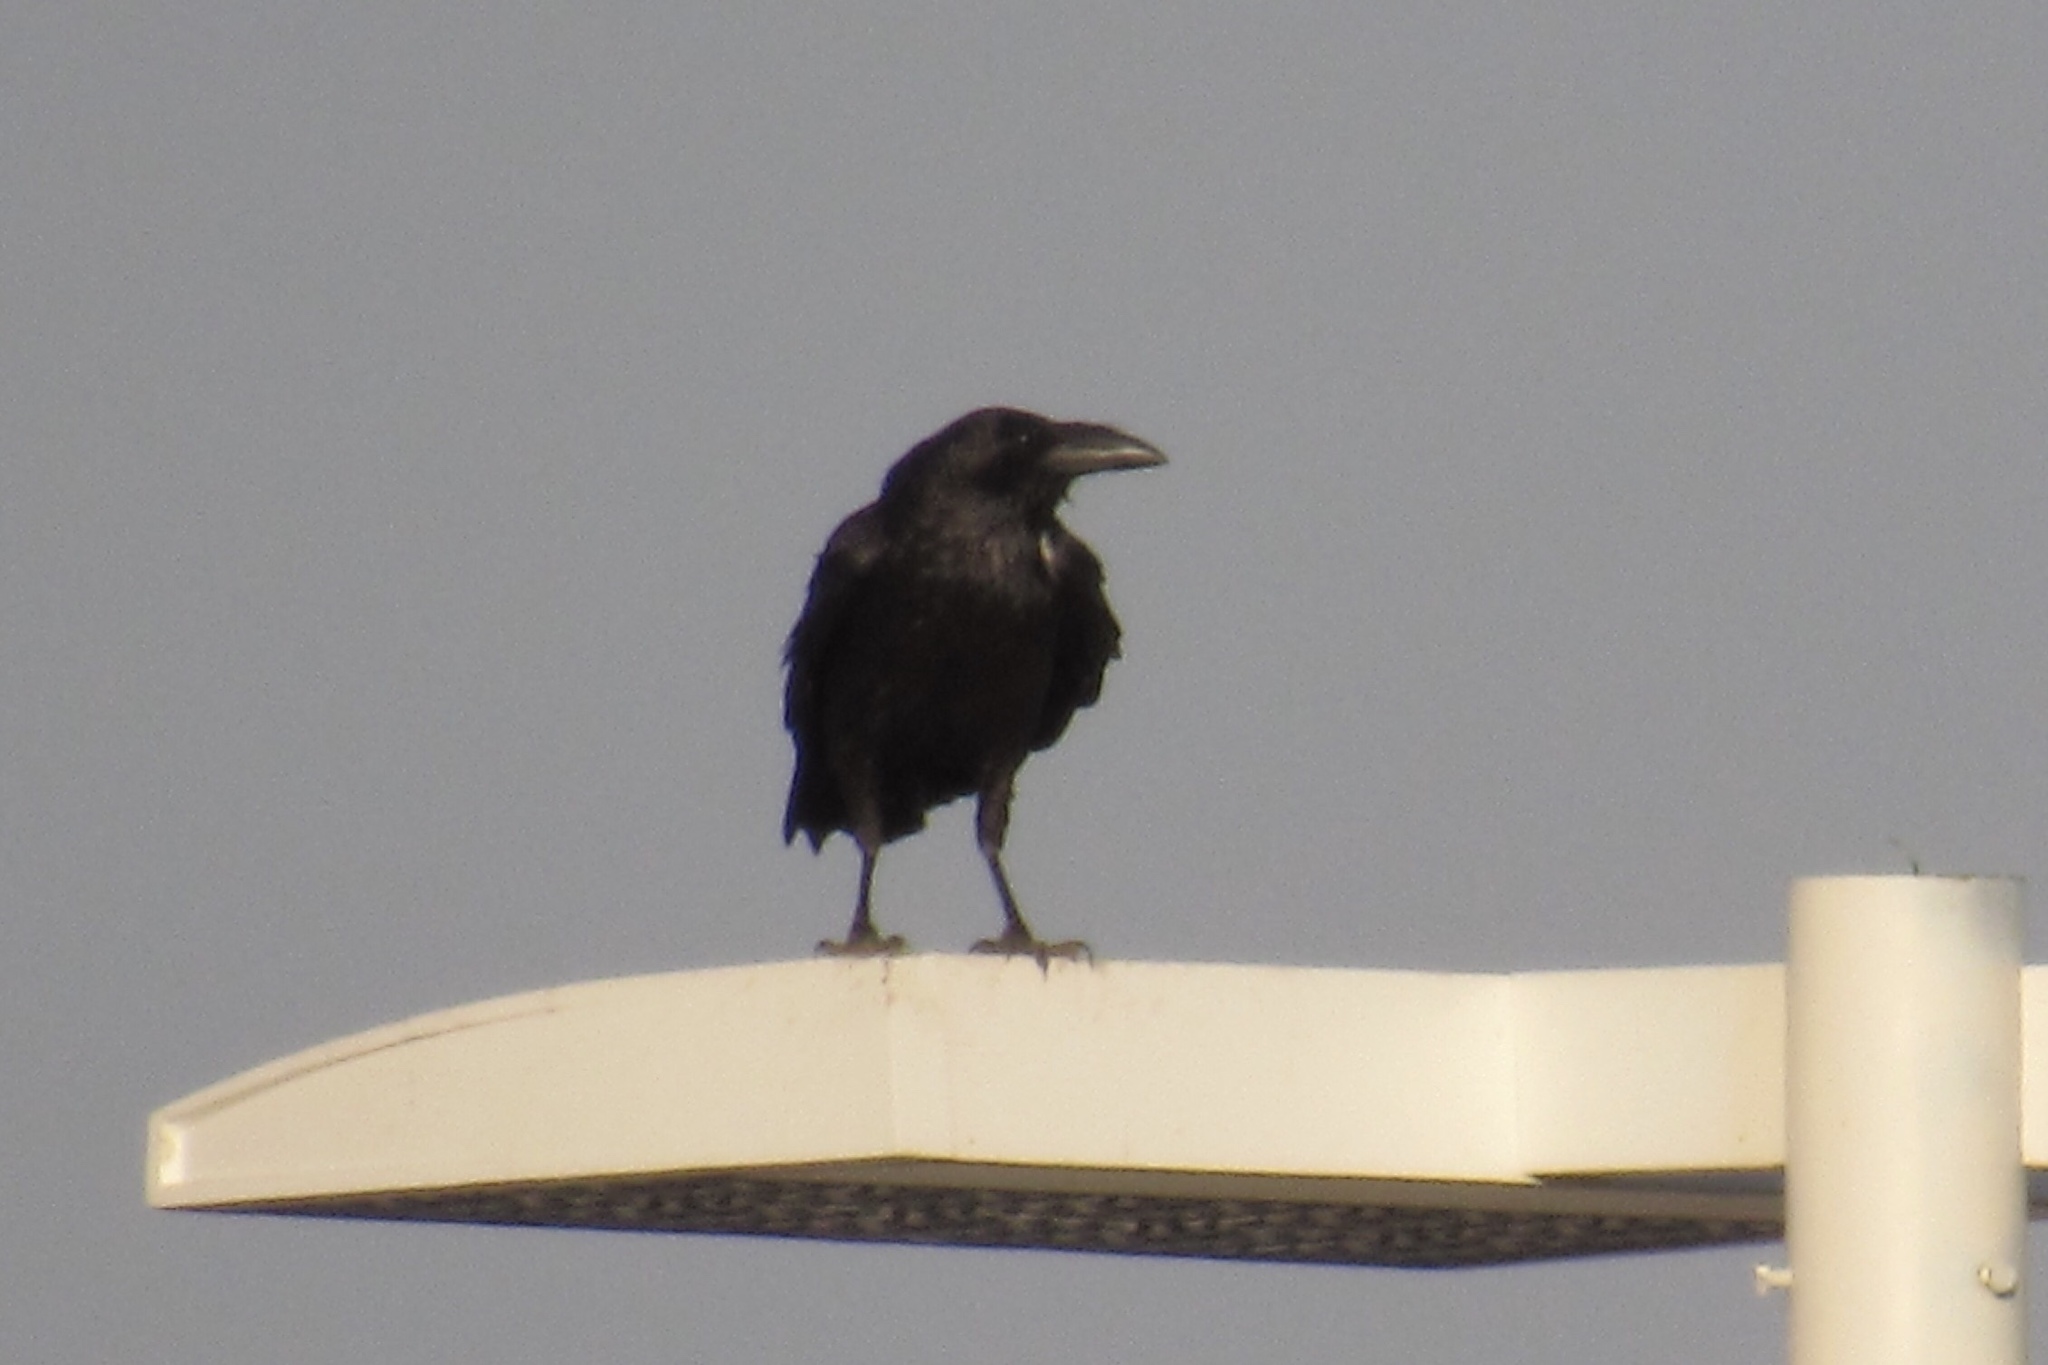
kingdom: Animalia
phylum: Chordata
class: Aves
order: Passeriformes
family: Corvidae
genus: Corvus
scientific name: Corvus cryptoleucus
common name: Chihuahuan raven
